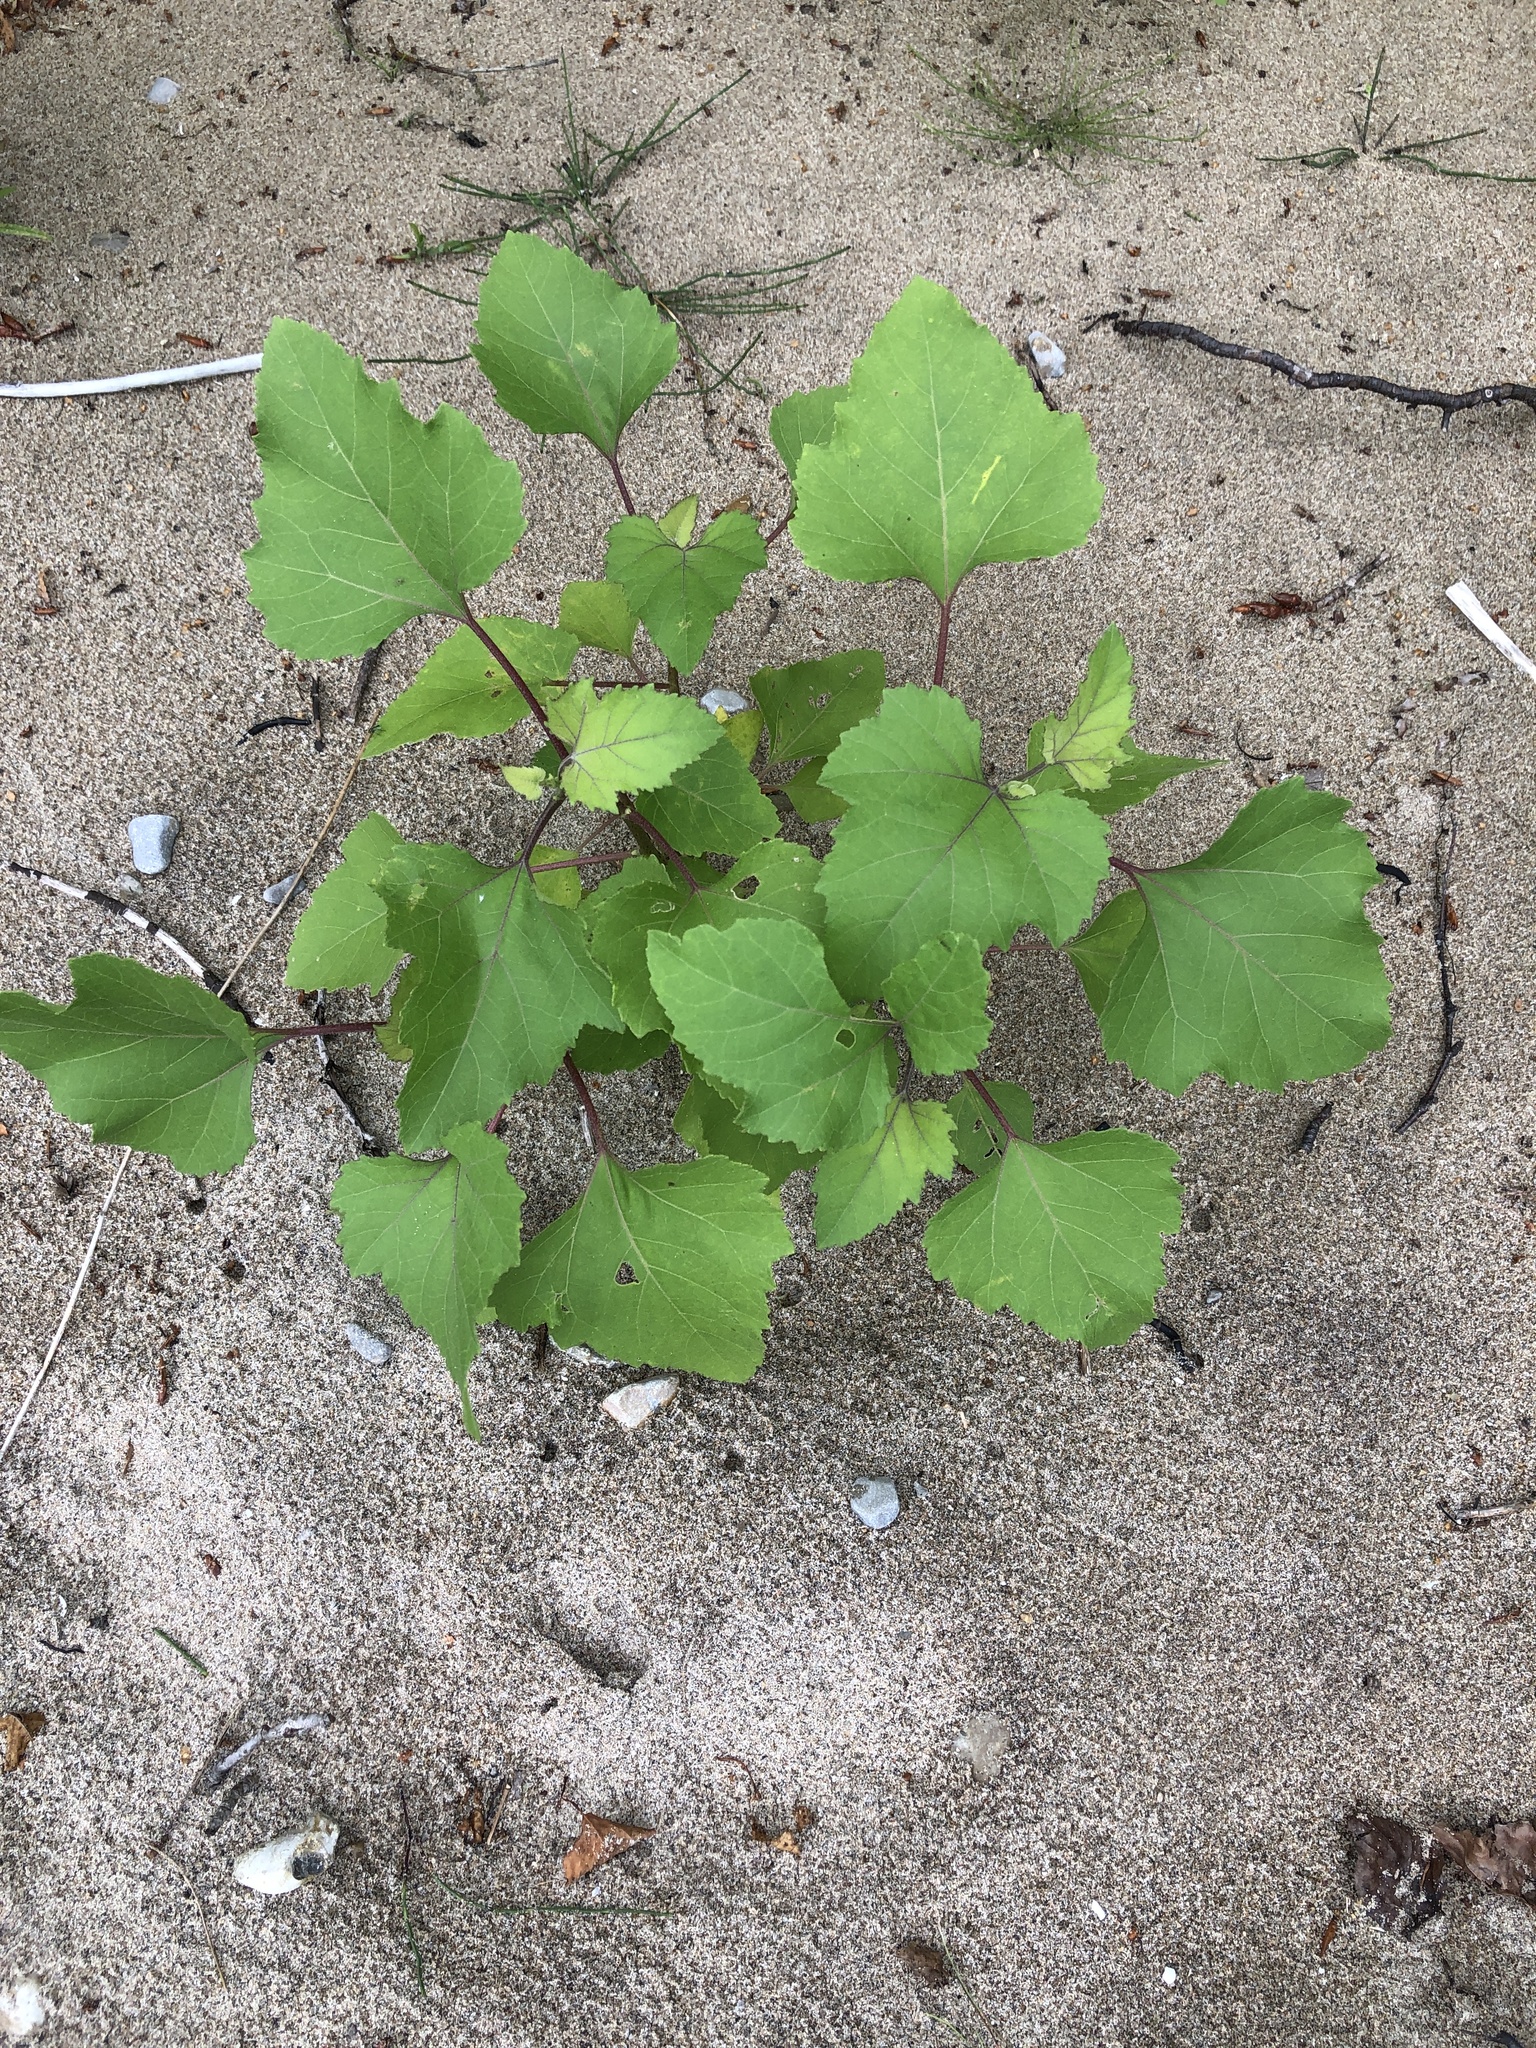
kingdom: Plantae
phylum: Tracheophyta
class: Magnoliopsida
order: Asterales
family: Asteraceae
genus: Xanthium
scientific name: Xanthium strumarium
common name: Rough cocklebur
